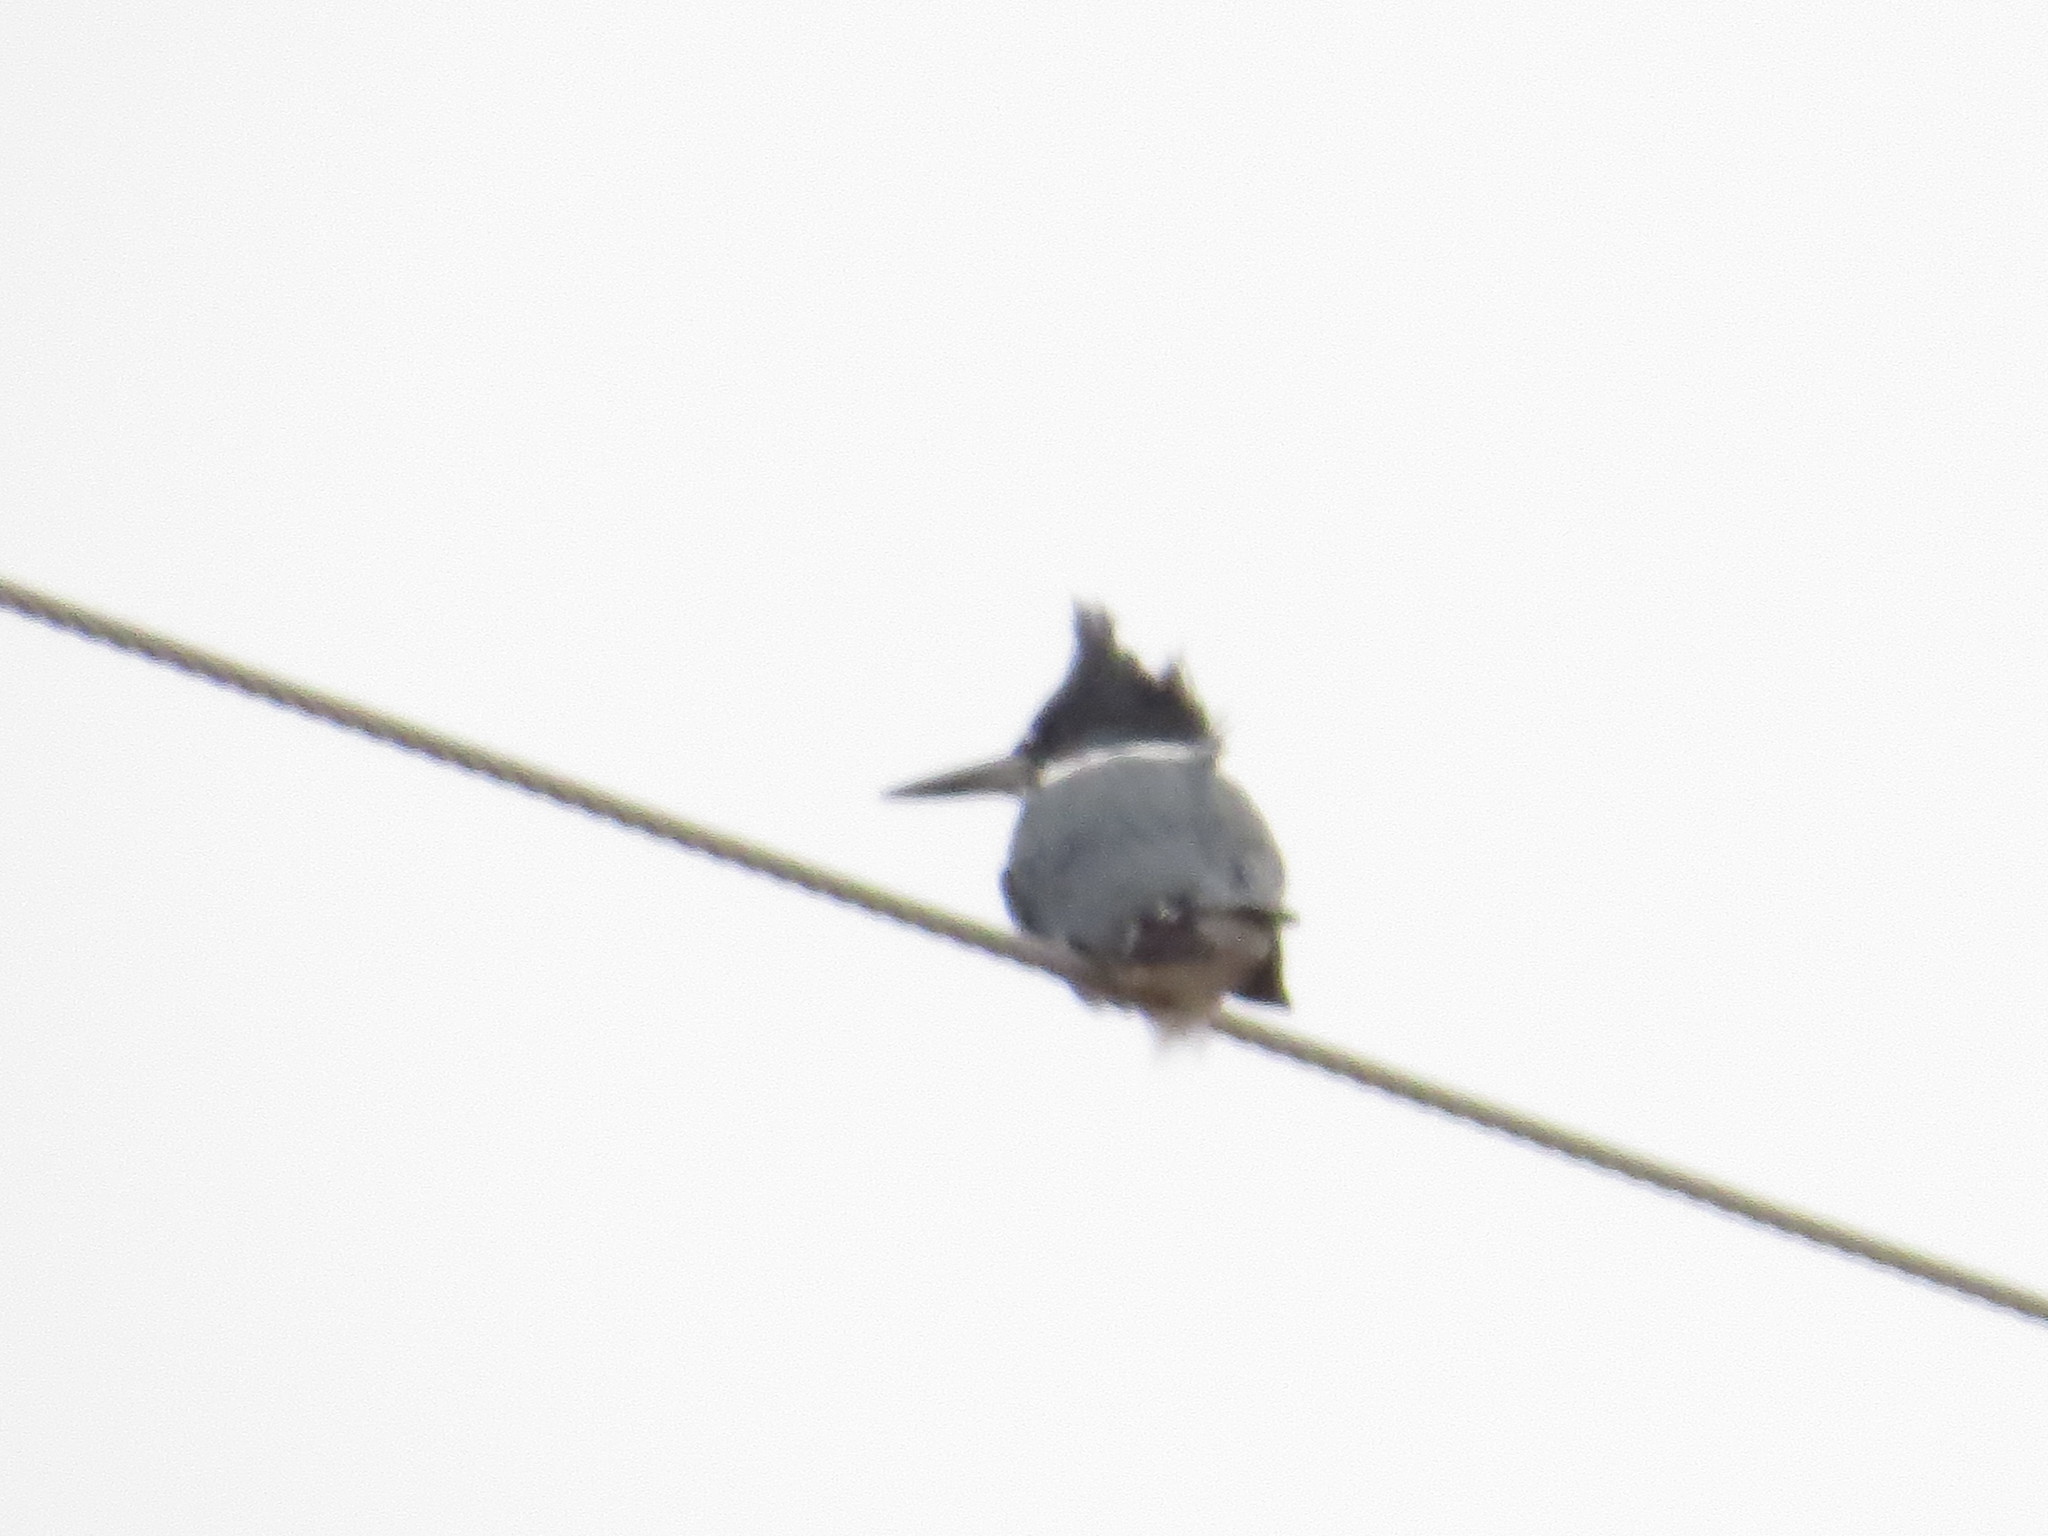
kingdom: Animalia
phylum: Chordata
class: Aves
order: Coraciiformes
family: Alcedinidae
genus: Megaceryle
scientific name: Megaceryle alcyon
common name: Belted kingfisher
